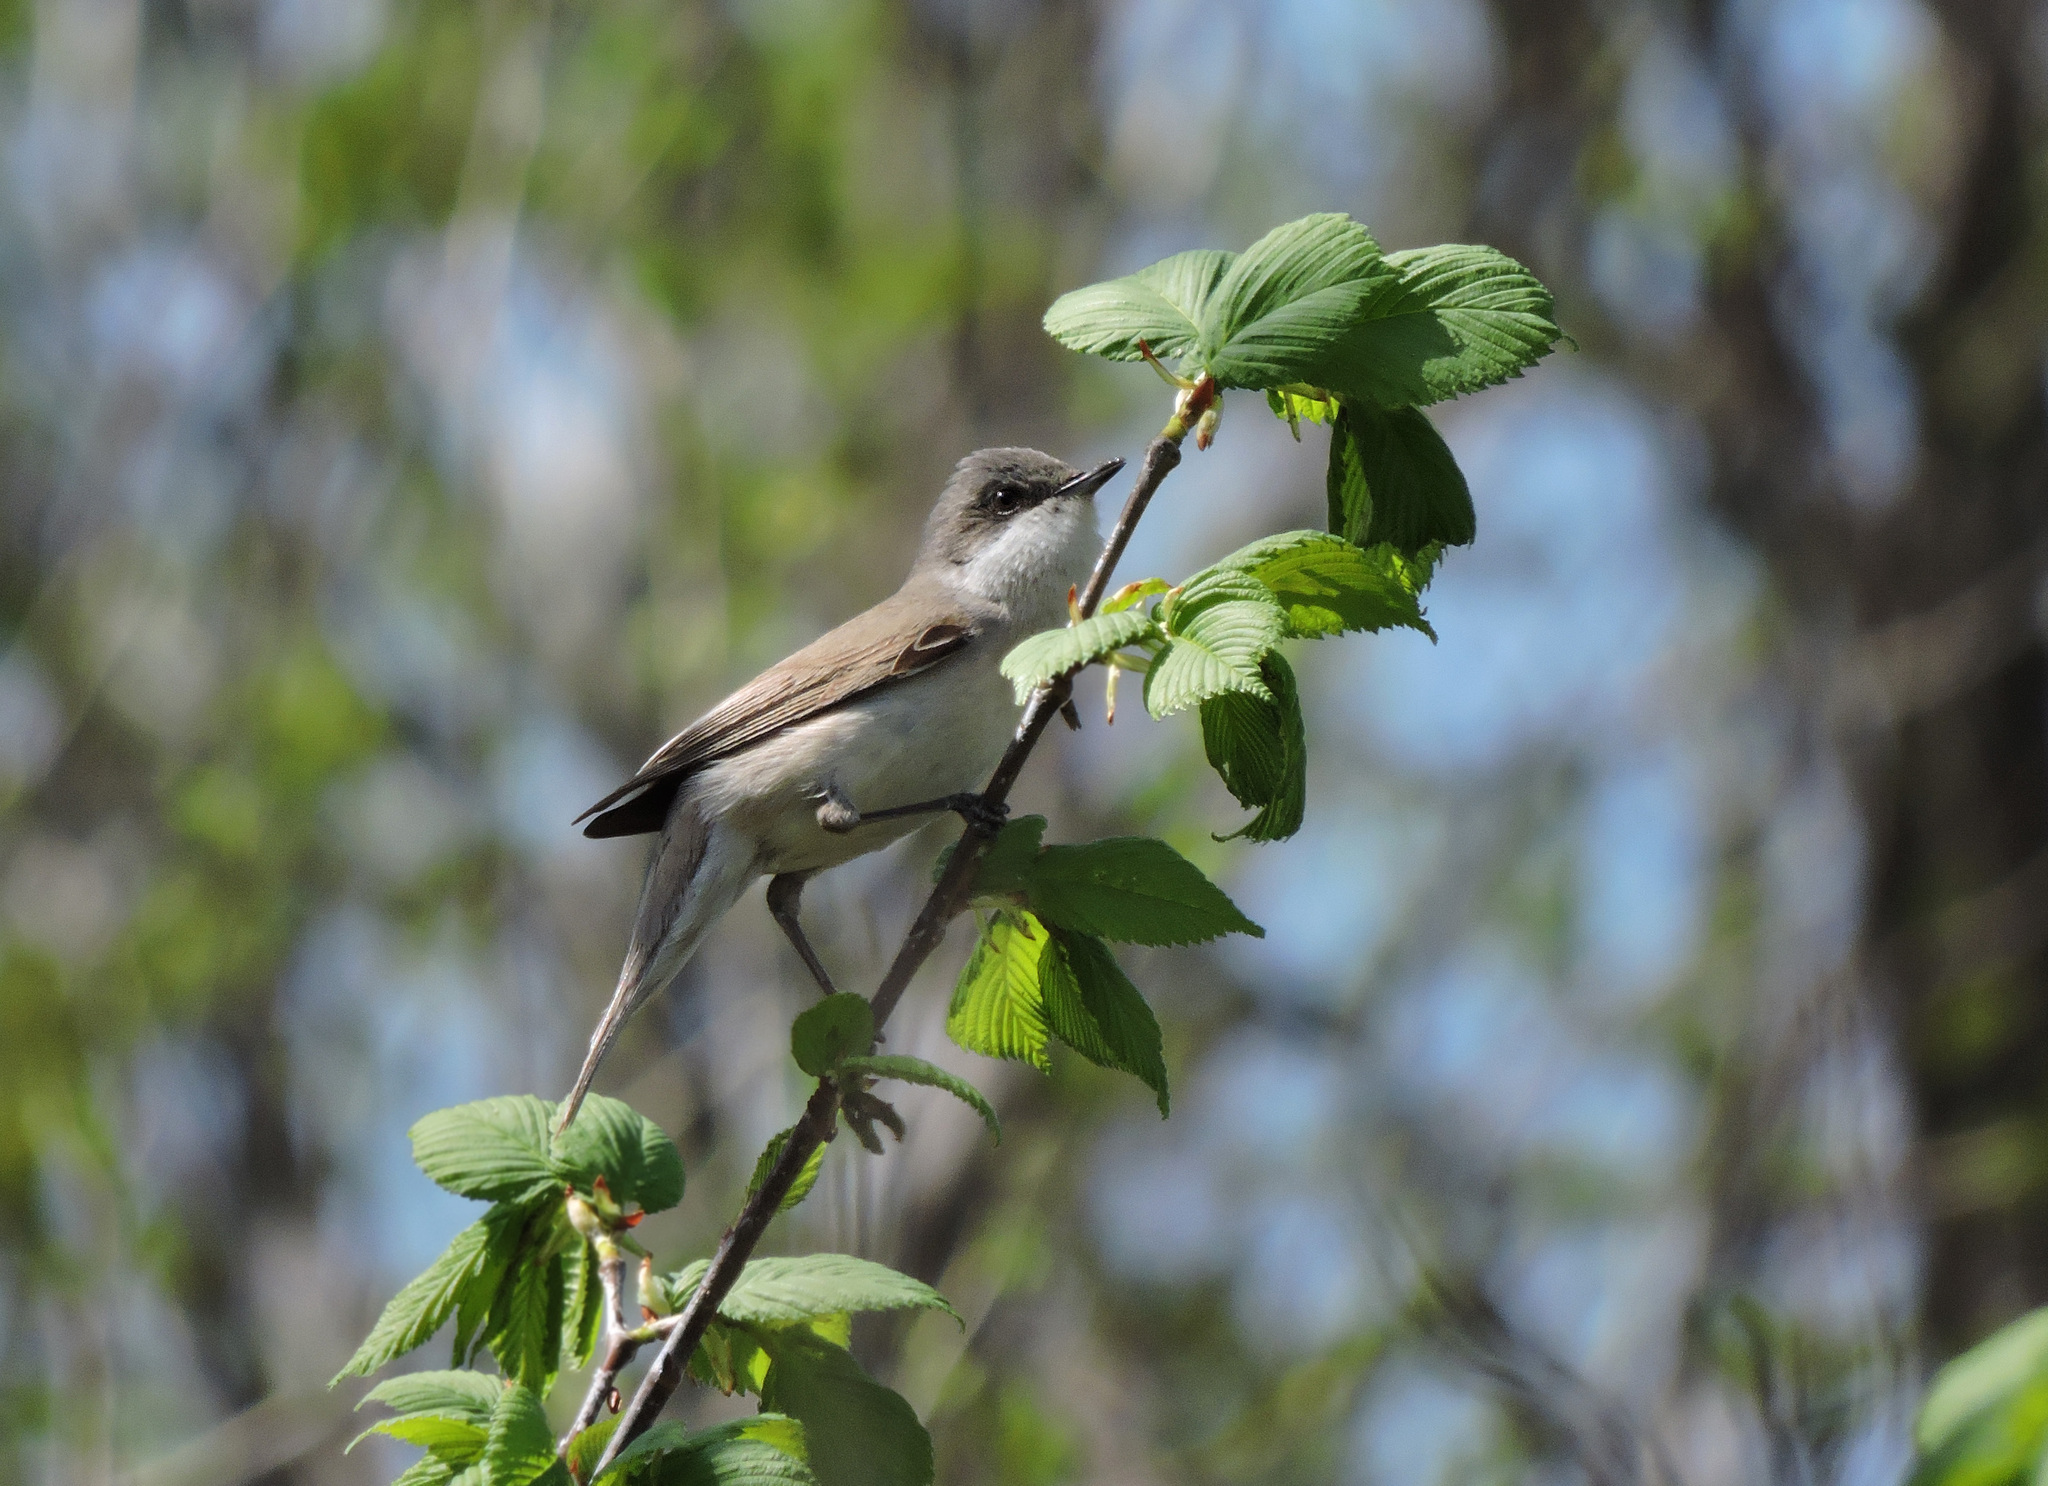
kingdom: Animalia
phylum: Chordata
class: Aves
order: Passeriformes
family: Sylviidae
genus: Sylvia
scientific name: Sylvia curruca
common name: Lesser whitethroat
